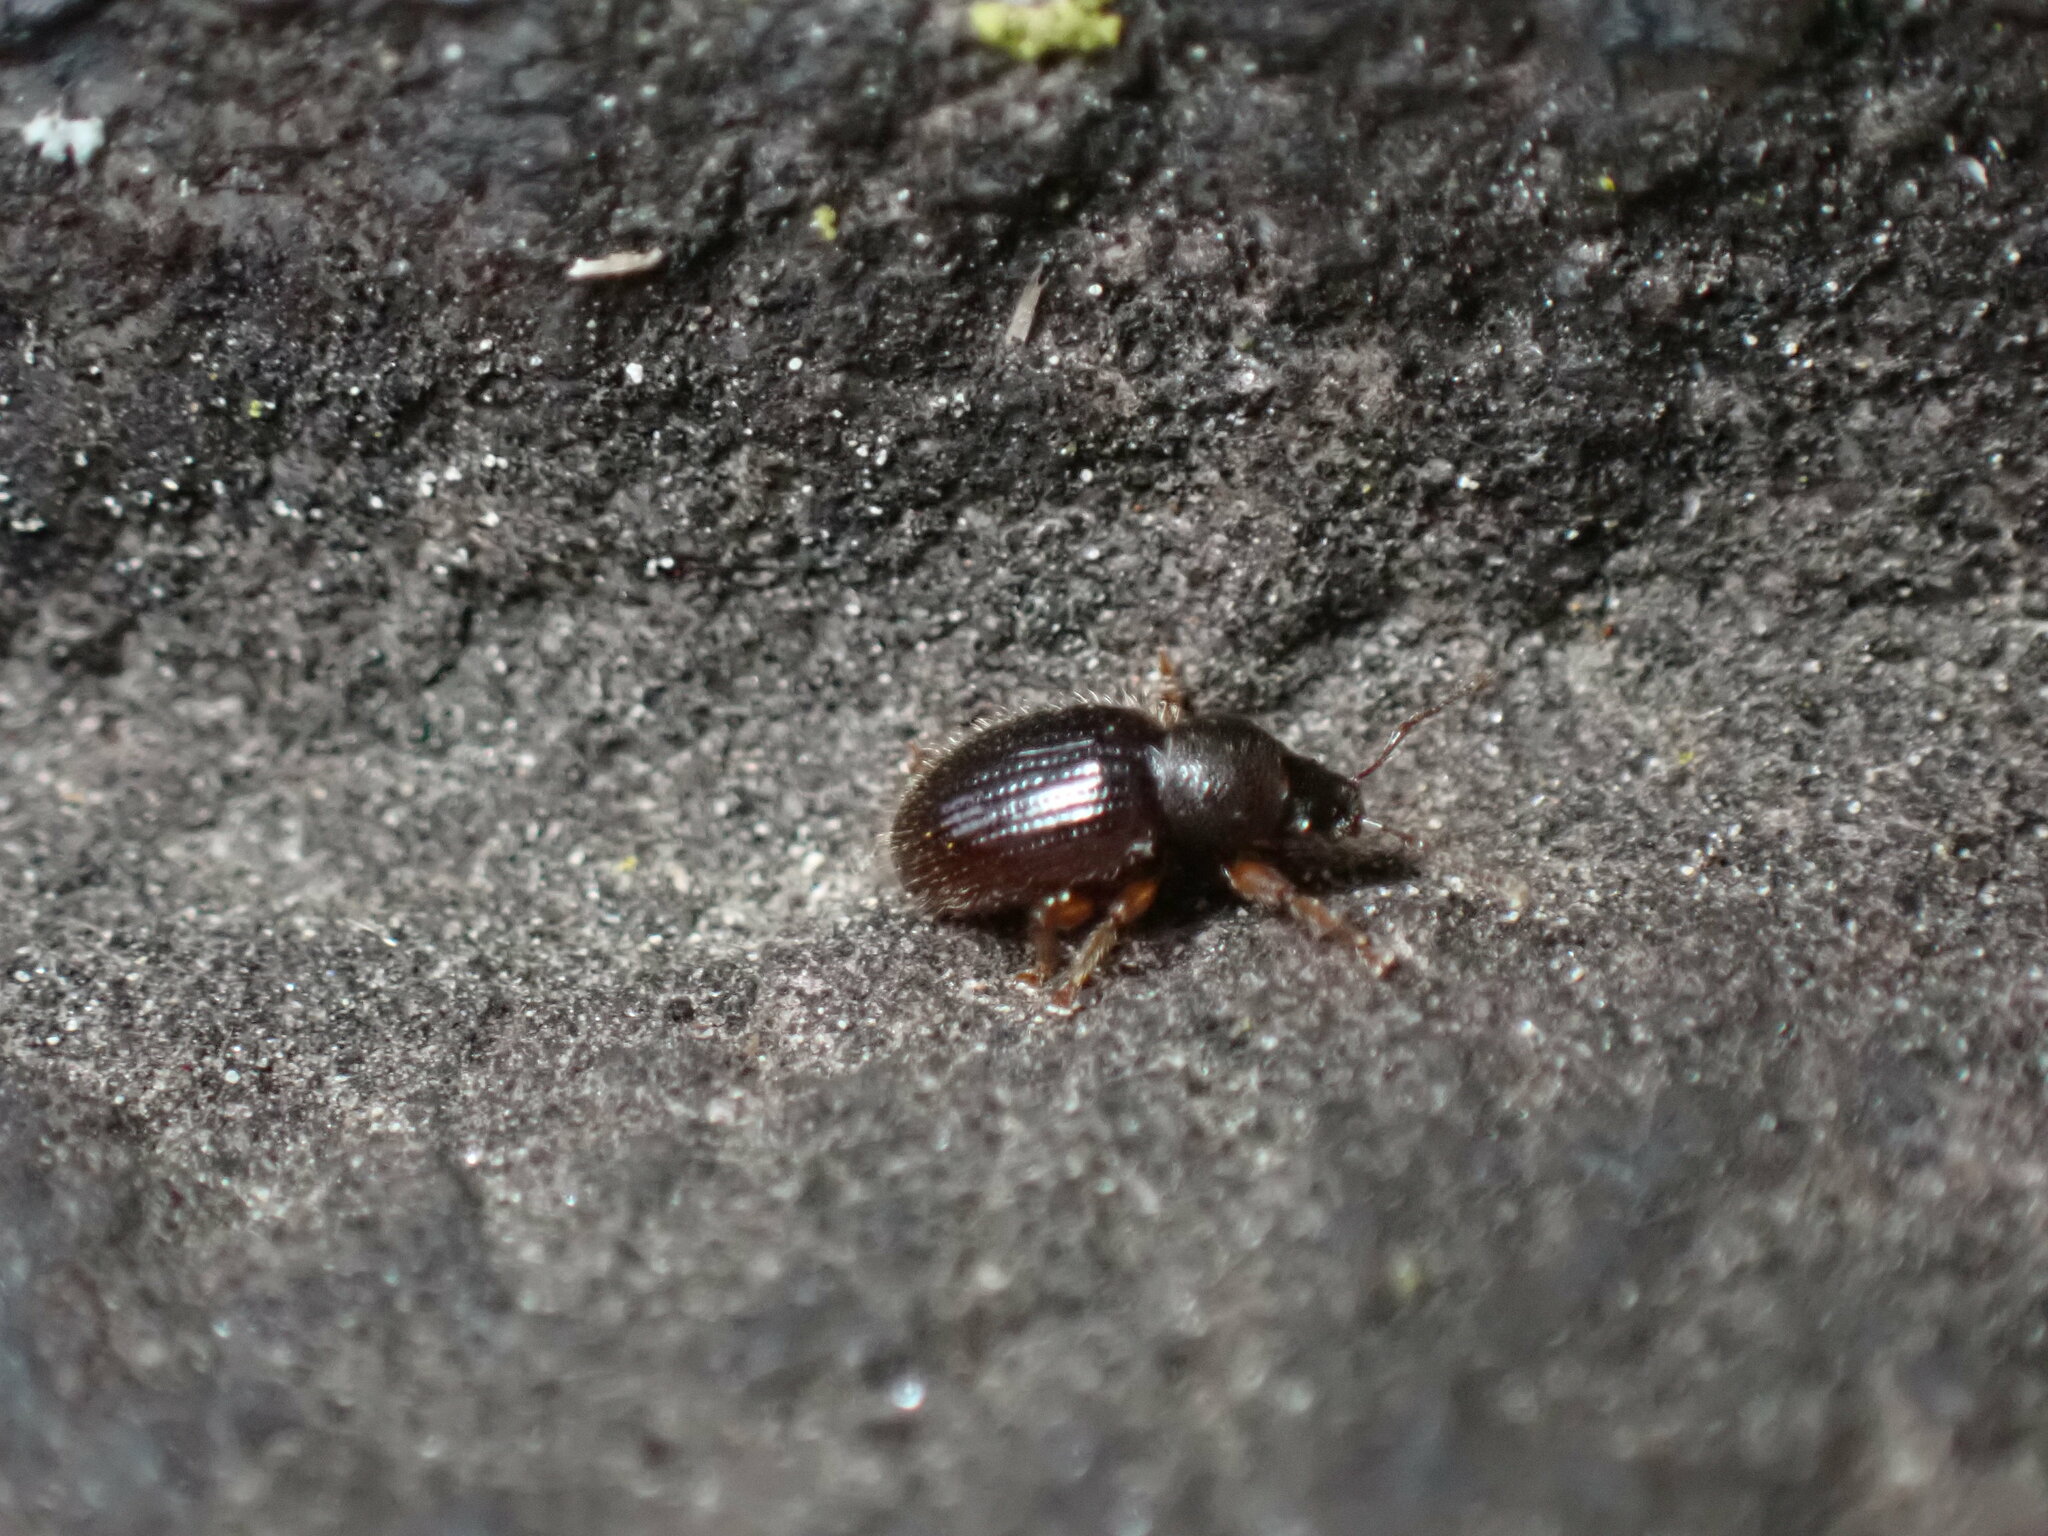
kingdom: Animalia
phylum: Arthropoda
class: Insecta
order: Coleoptera
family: Curculionidae
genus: Exomias
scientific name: Exomias pellucidus
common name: Hairy spider weevil
